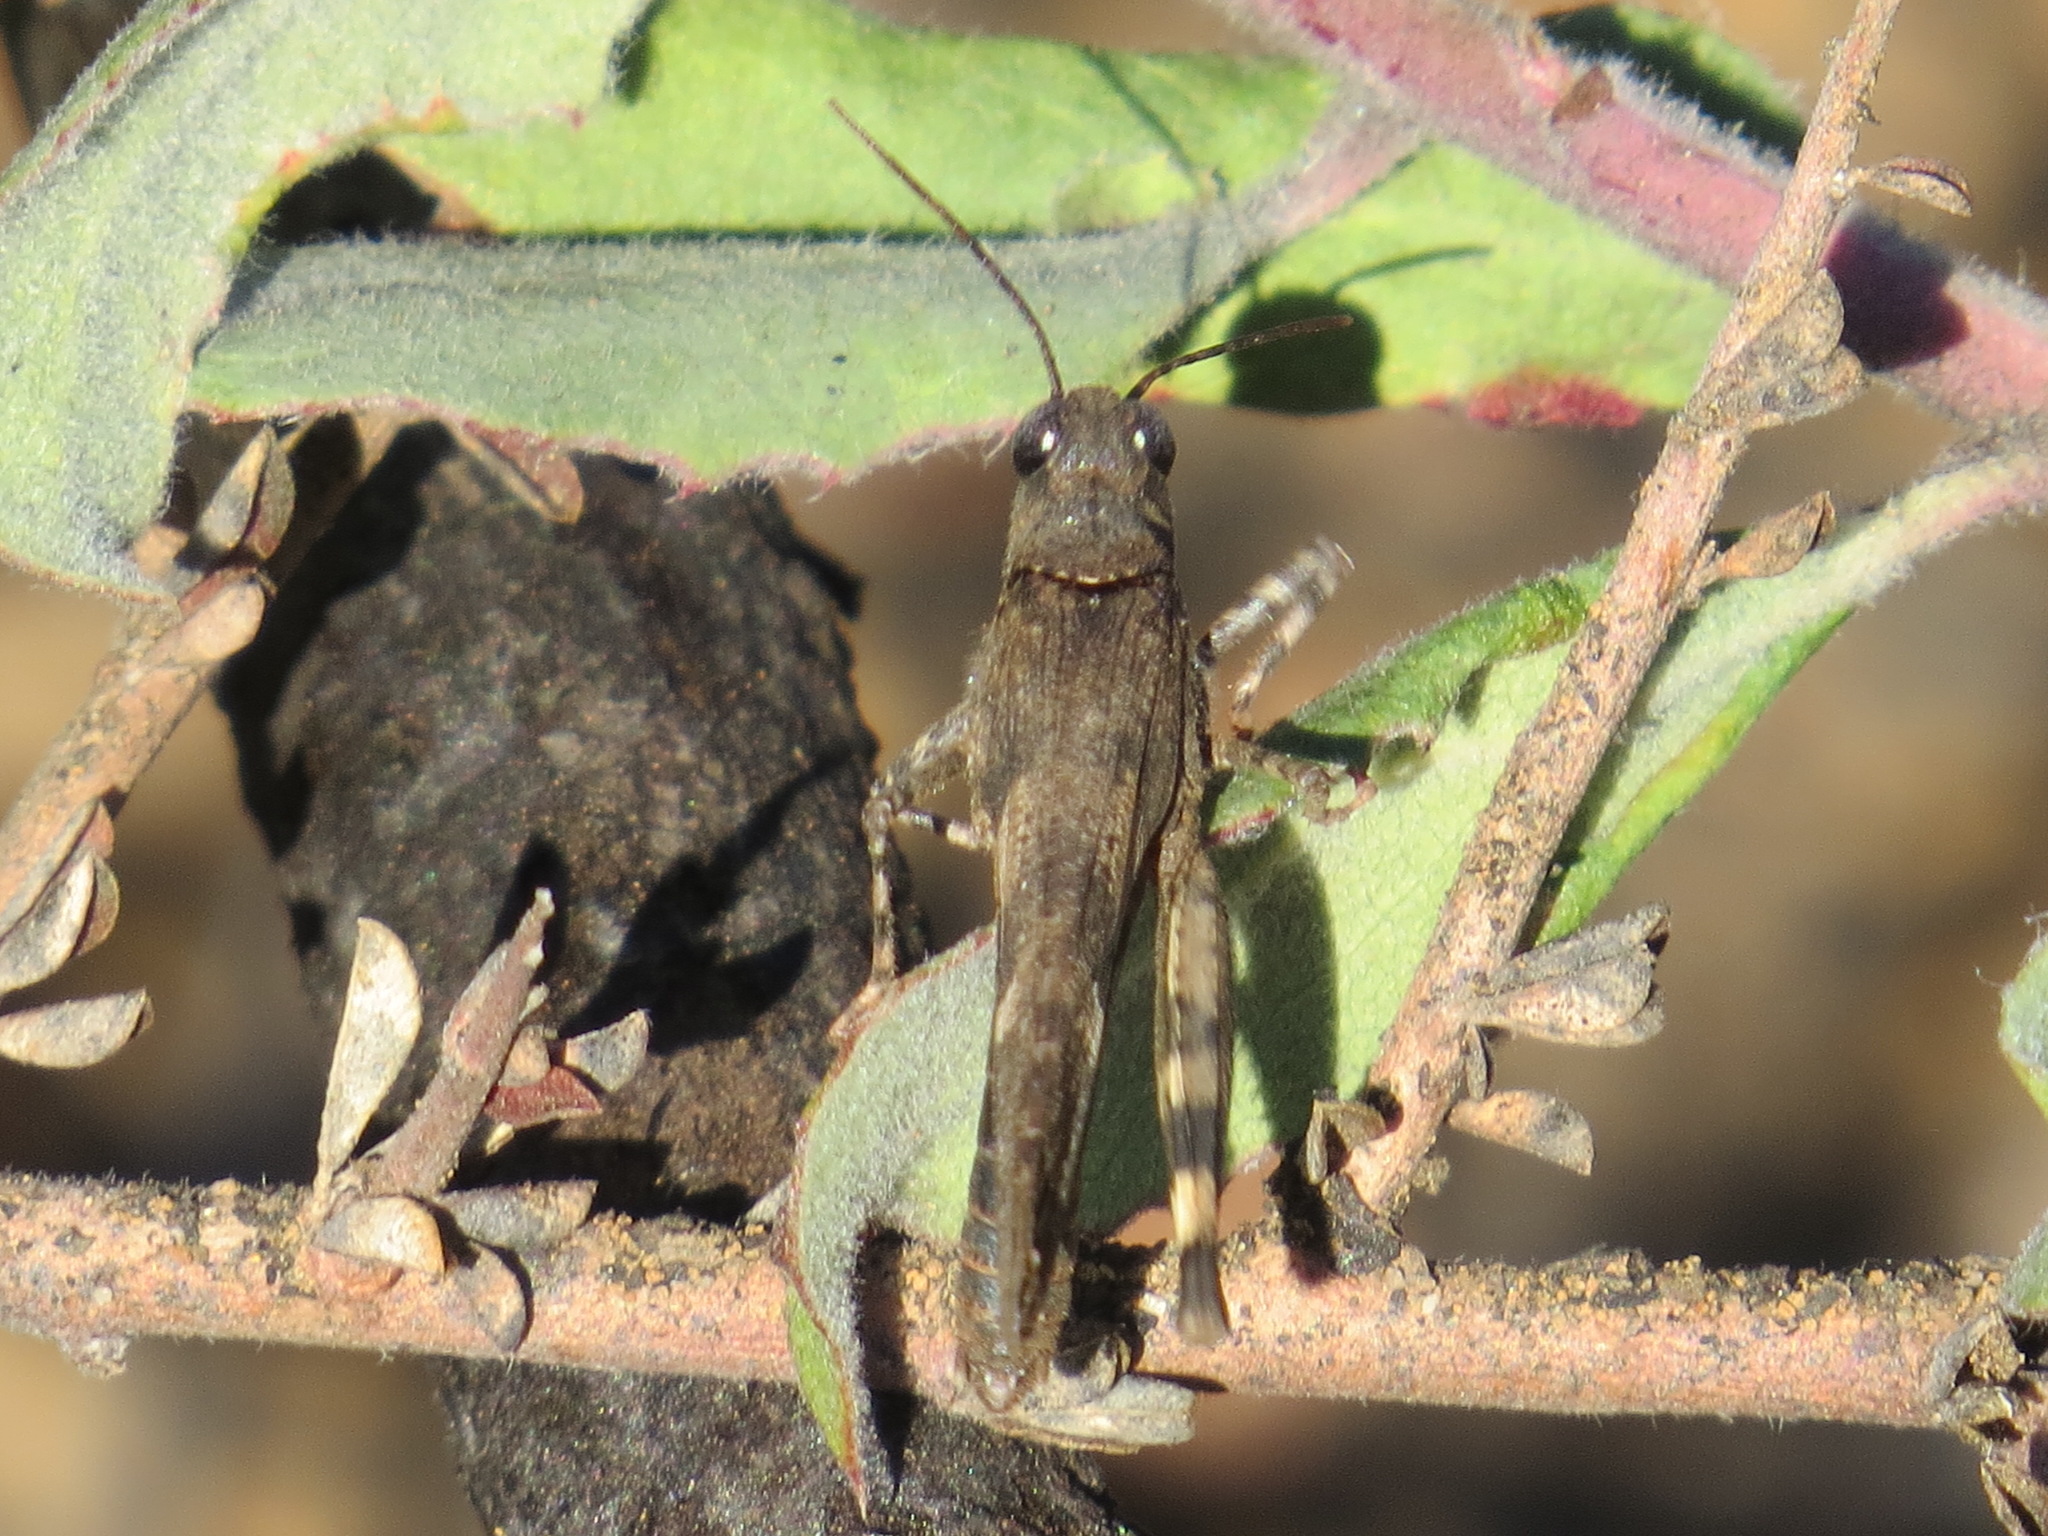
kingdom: Animalia
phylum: Arthropoda
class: Insecta
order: Orthoptera
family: Acrididae
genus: Trimerotropis
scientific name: Trimerotropis fontana
